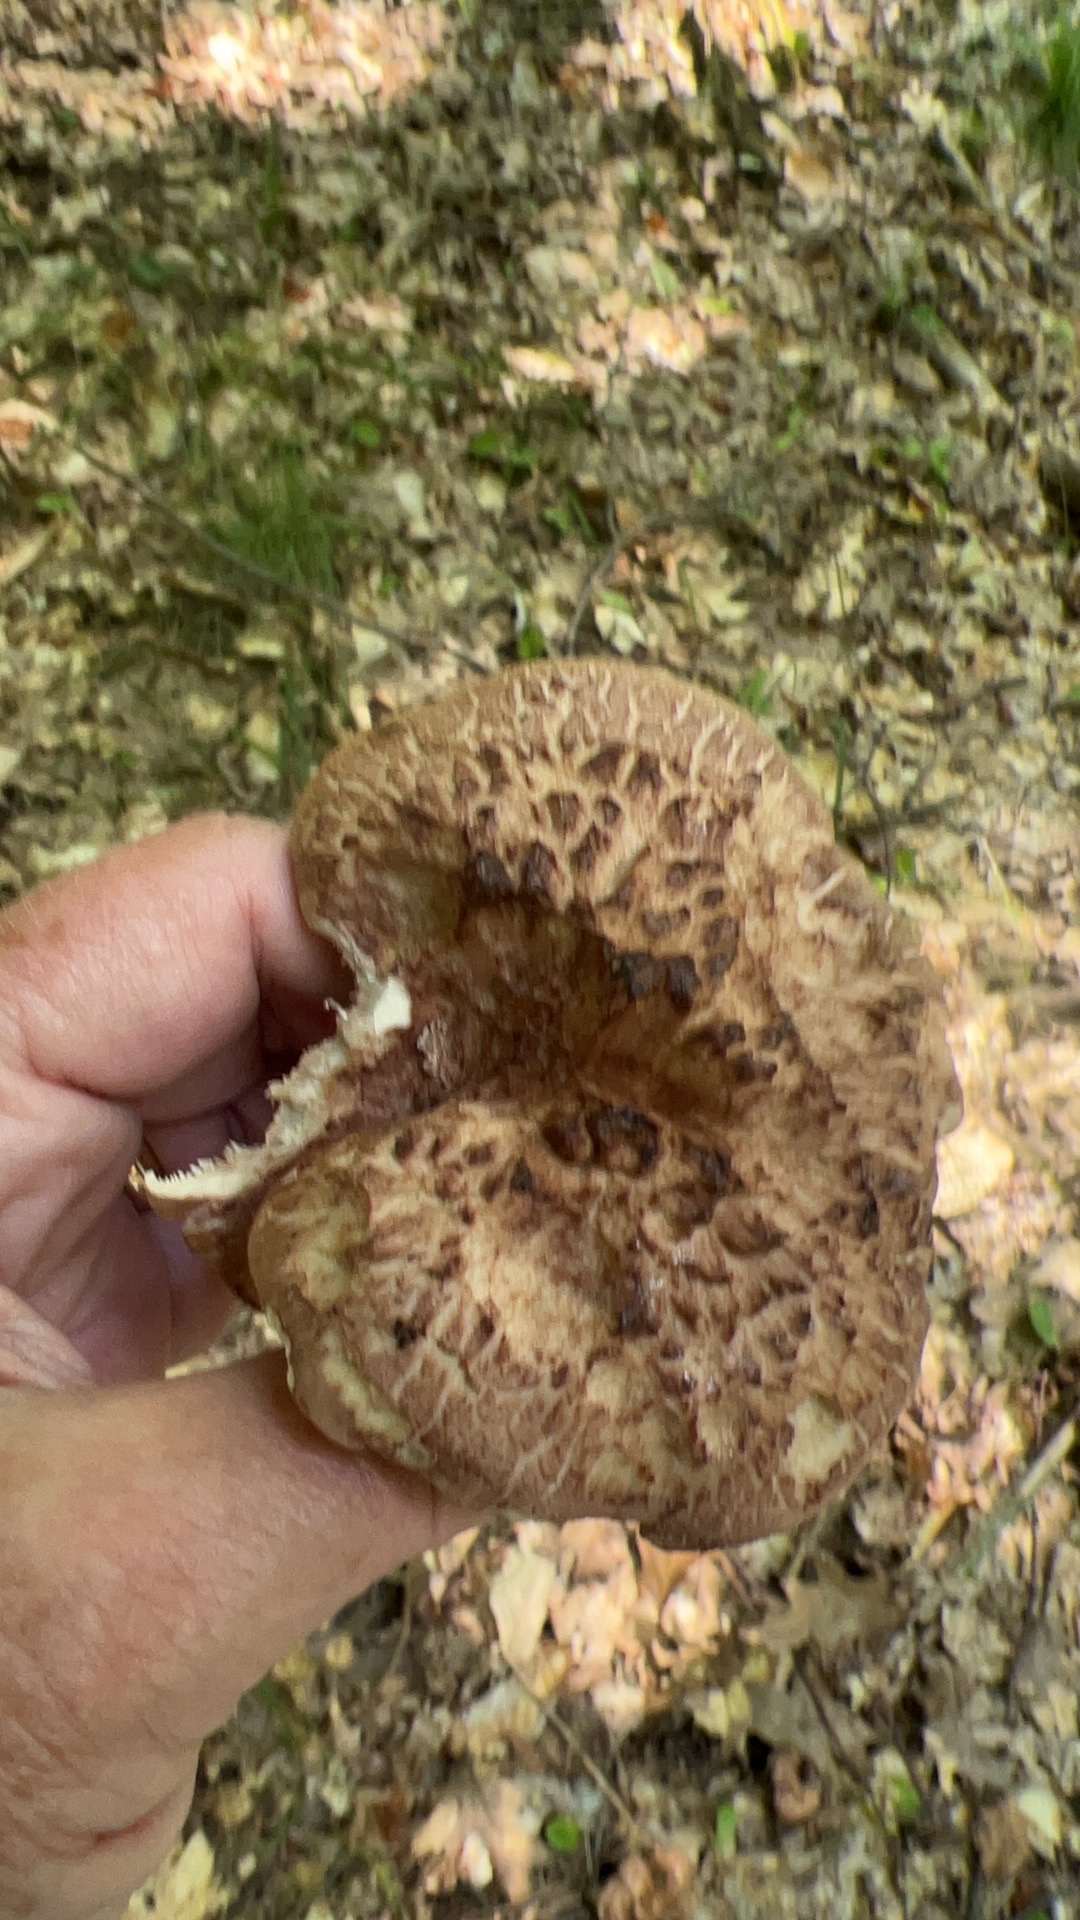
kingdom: Fungi
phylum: Basidiomycota
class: Agaricomycetes
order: Thelephorales
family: Bankeraceae
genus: Sarcodon
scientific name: Sarcodon imbricatus
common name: Shingled hedgehog
